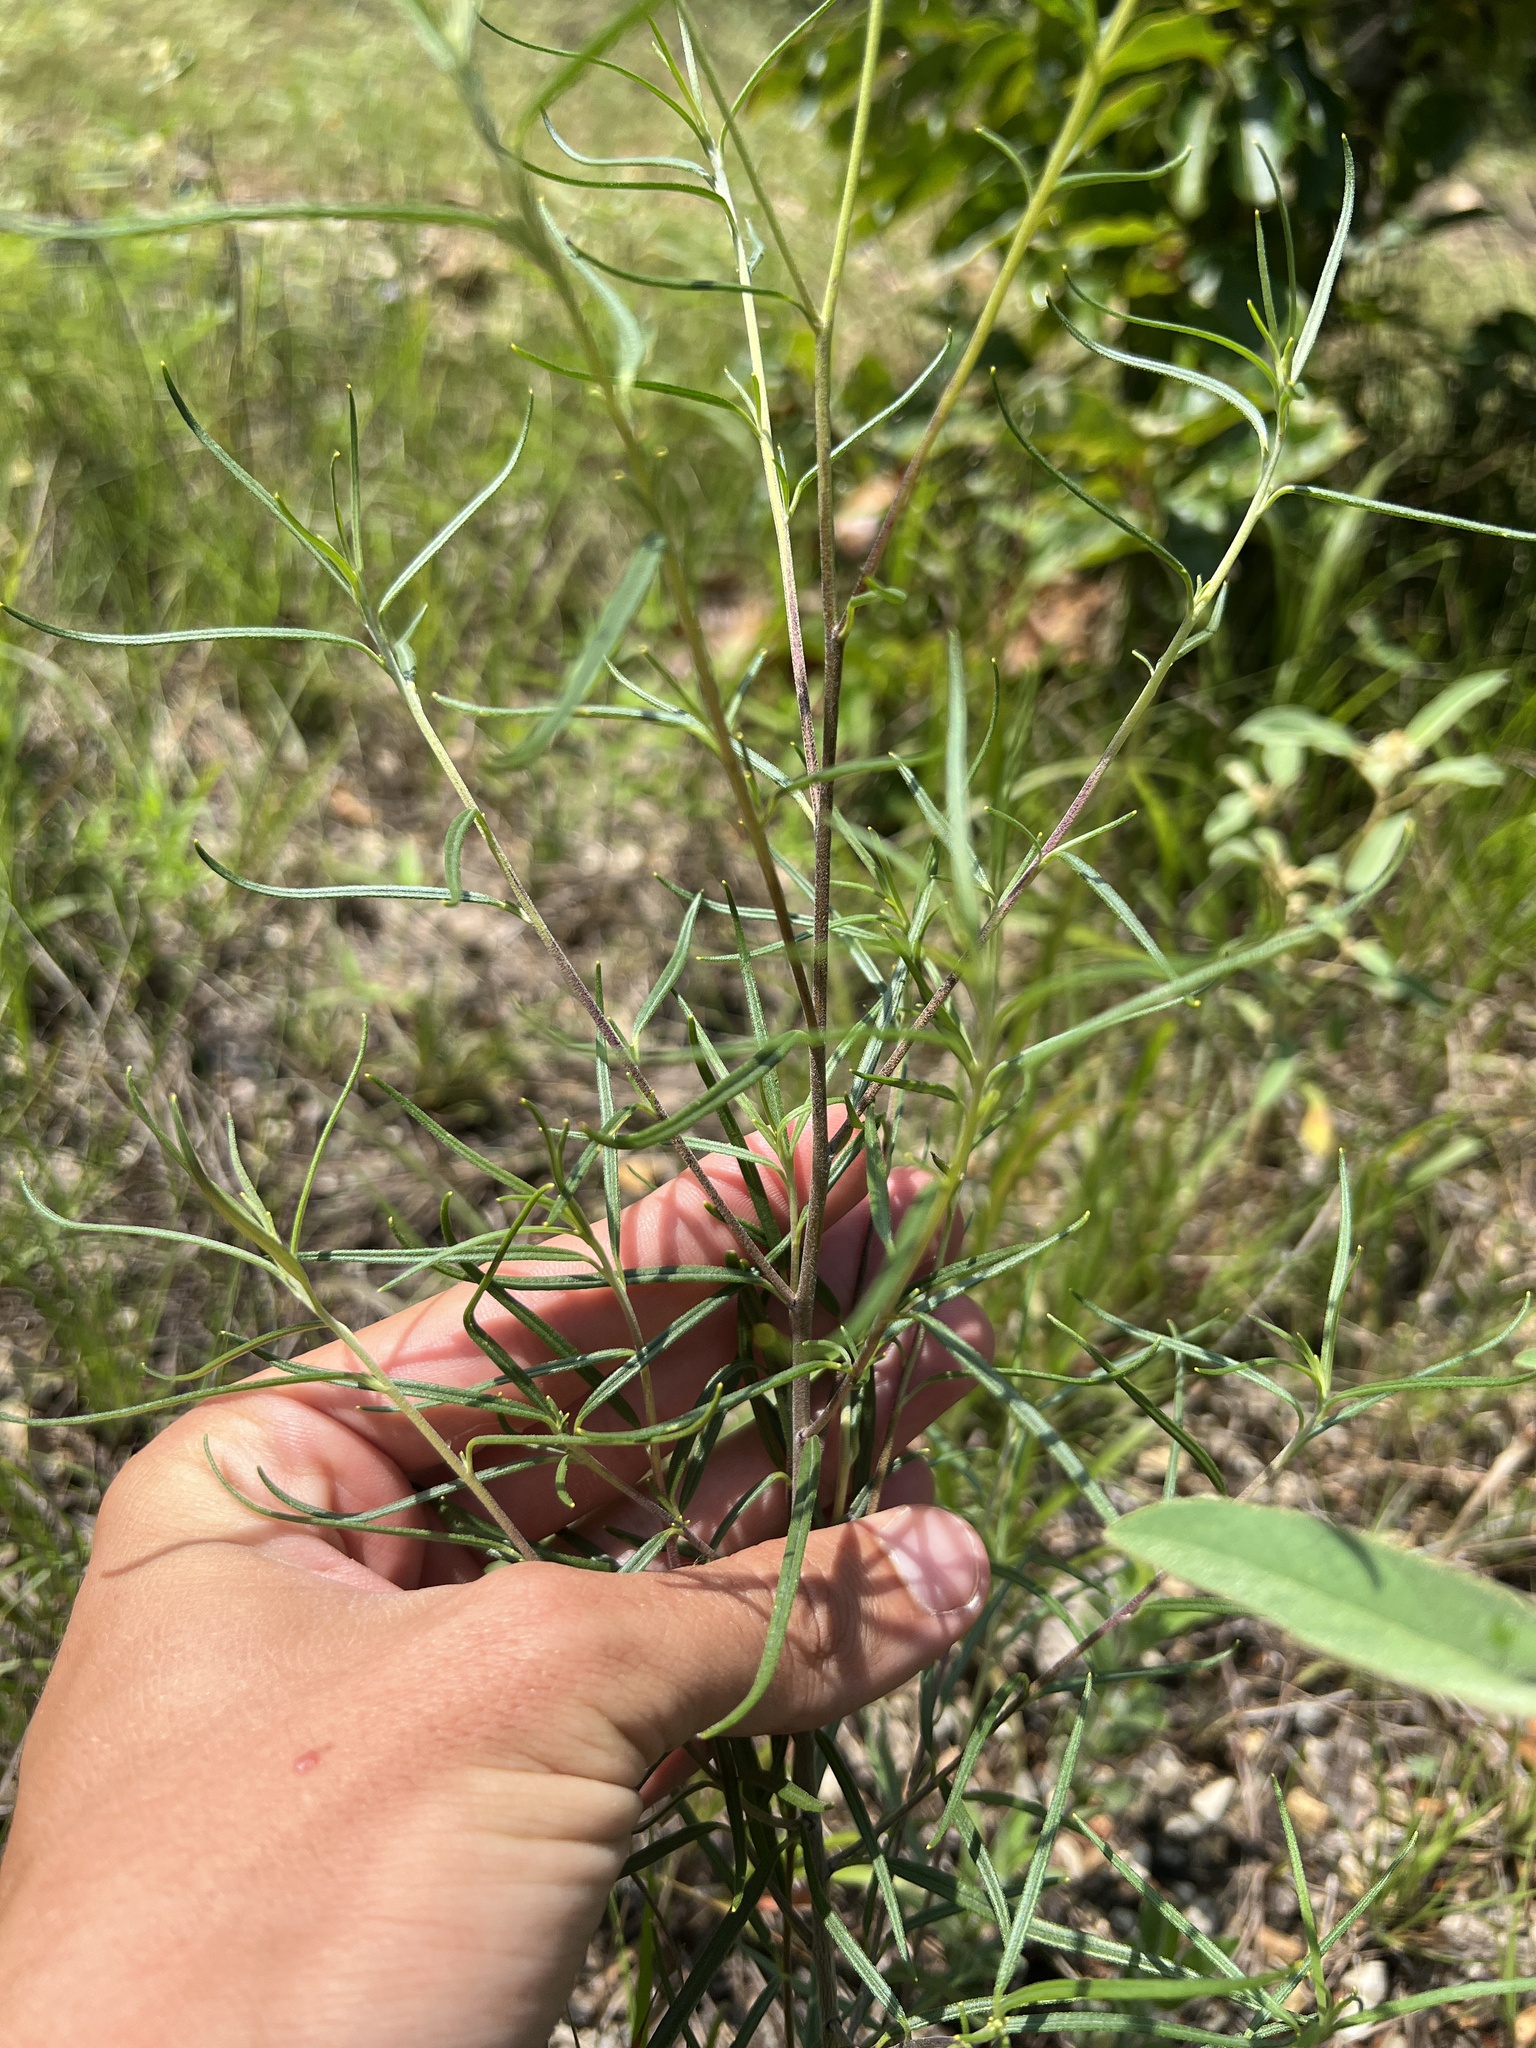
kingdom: Plantae
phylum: Tracheophyta
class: Magnoliopsida
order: Asterales
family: Asteraceae
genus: Palafoxia
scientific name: Palafoxia callosa
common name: Small palafox
